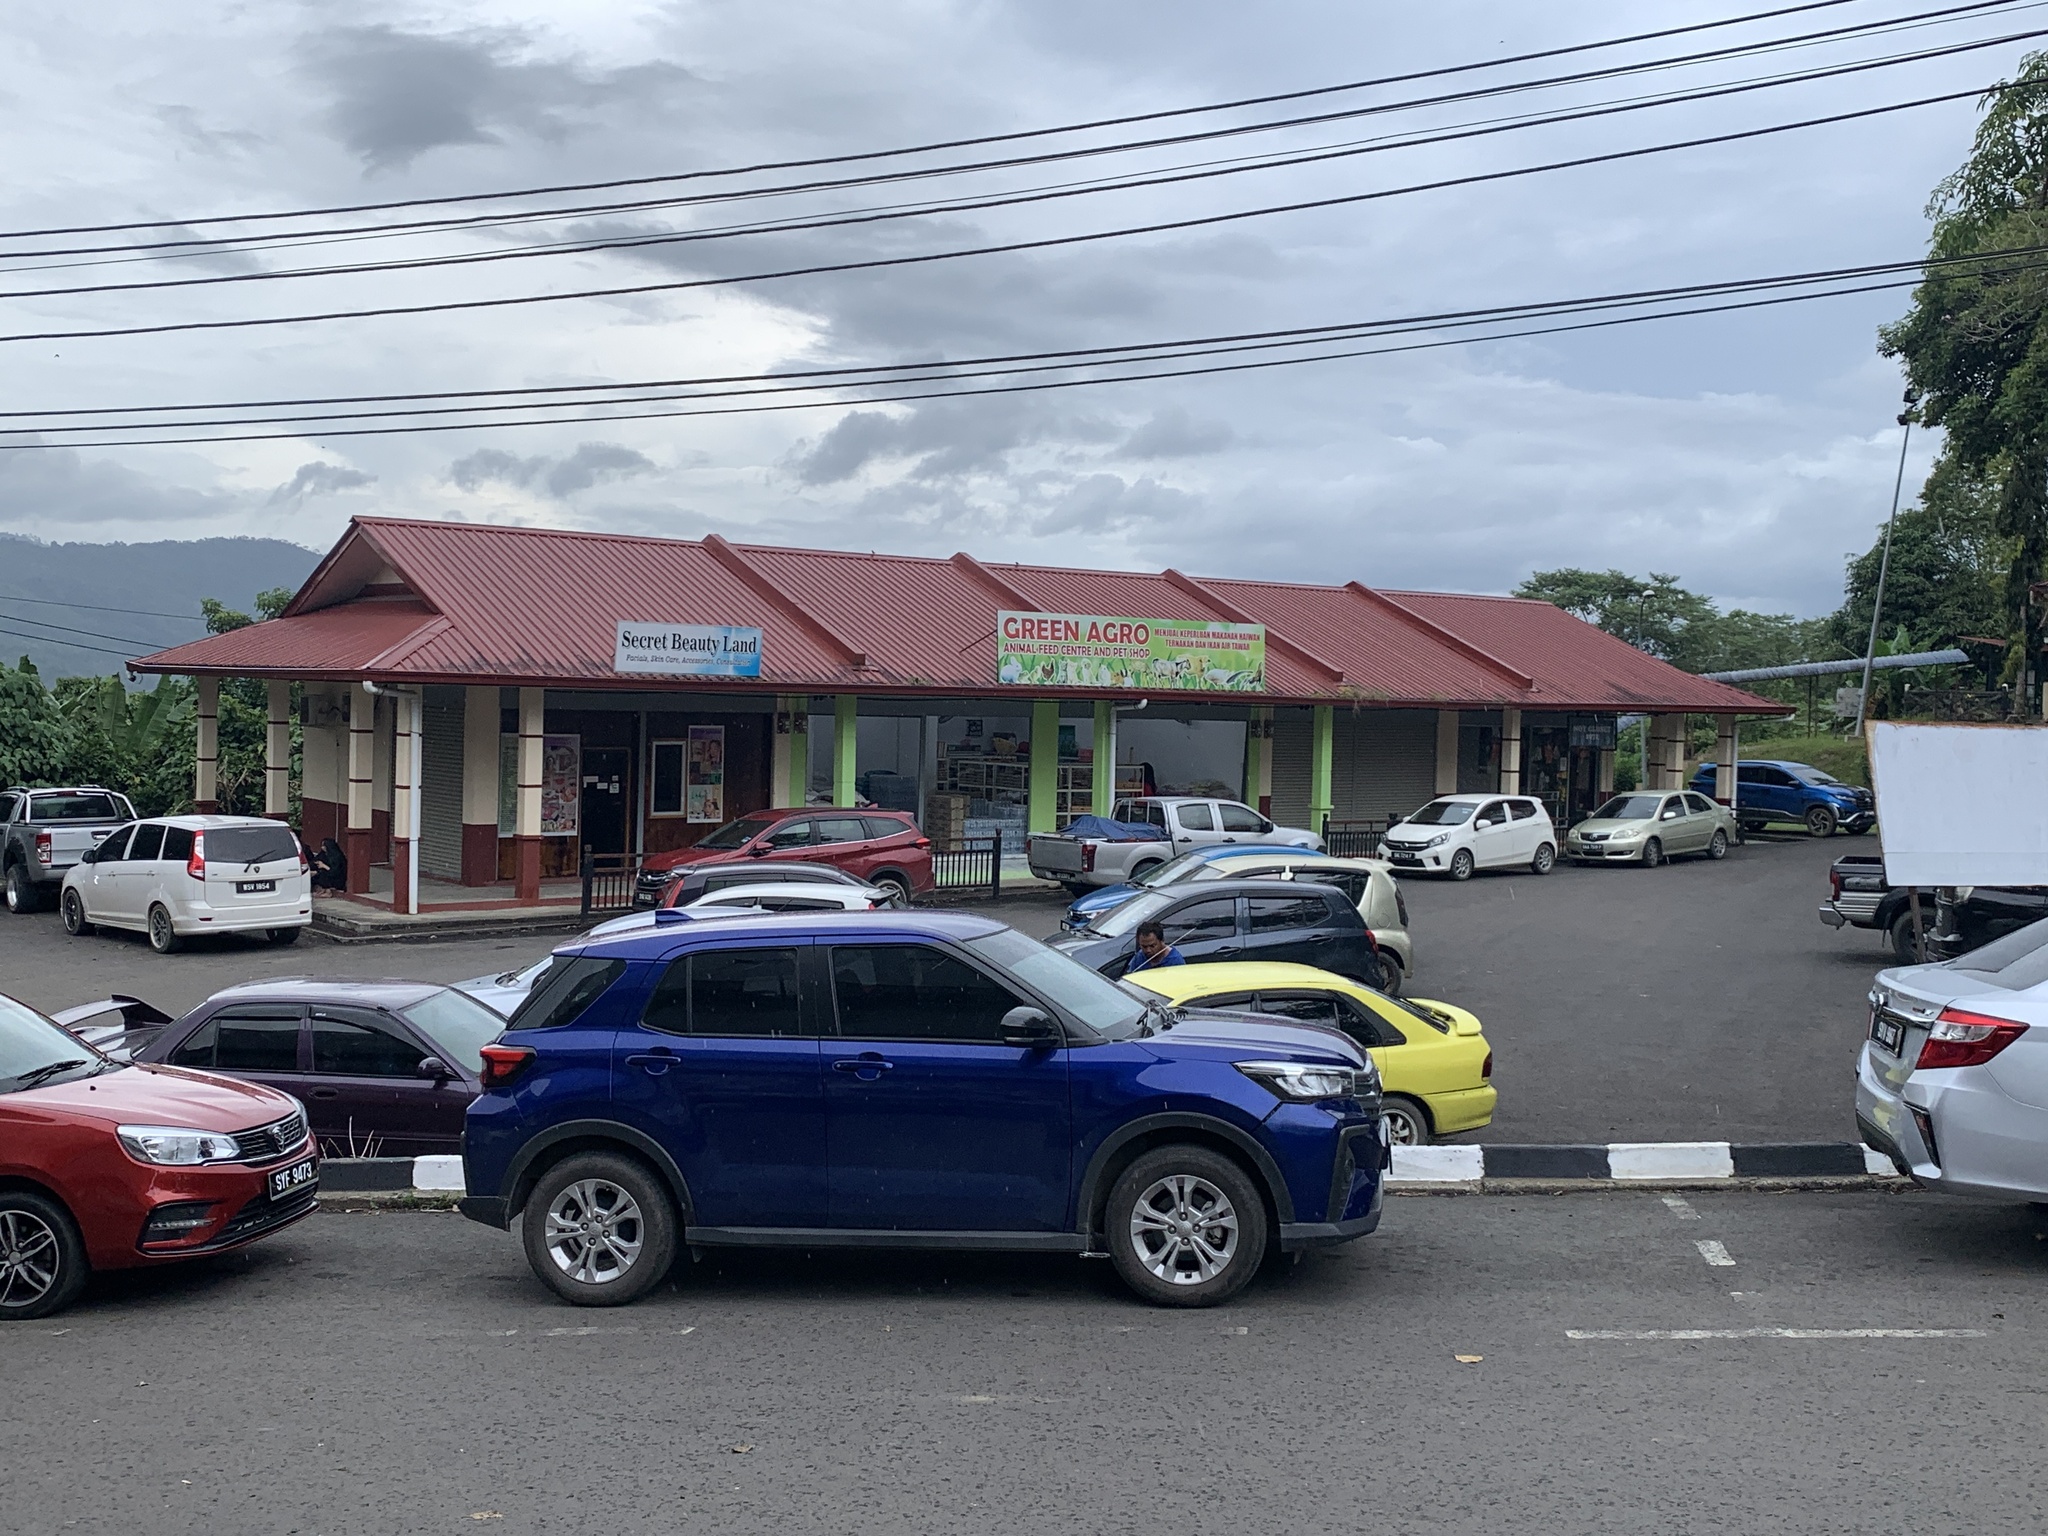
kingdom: Animalia
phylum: Chordata
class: Mammalia
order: Rodentia
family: Sciuridae
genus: Callosciurus
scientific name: Callosciurus notatus
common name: Plantain squirrel
